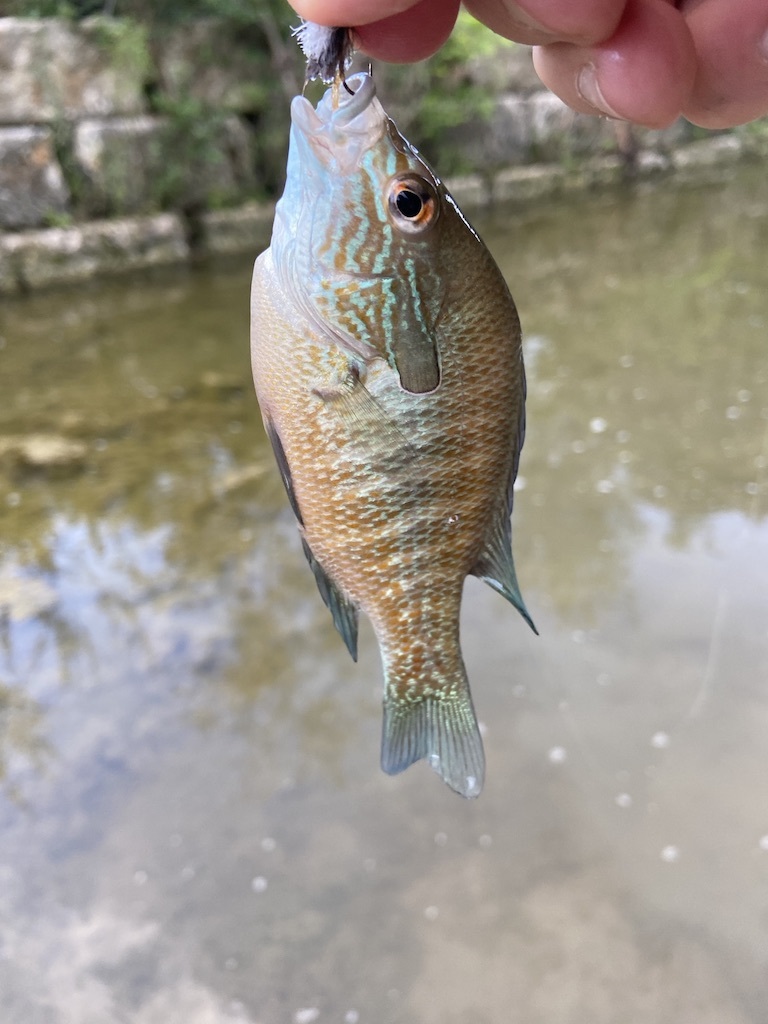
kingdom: Animalia
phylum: Chordata
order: Perciformes
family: Centrarchidae
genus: Lepomis
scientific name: Lepomis megalotis
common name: Longear sunfish
